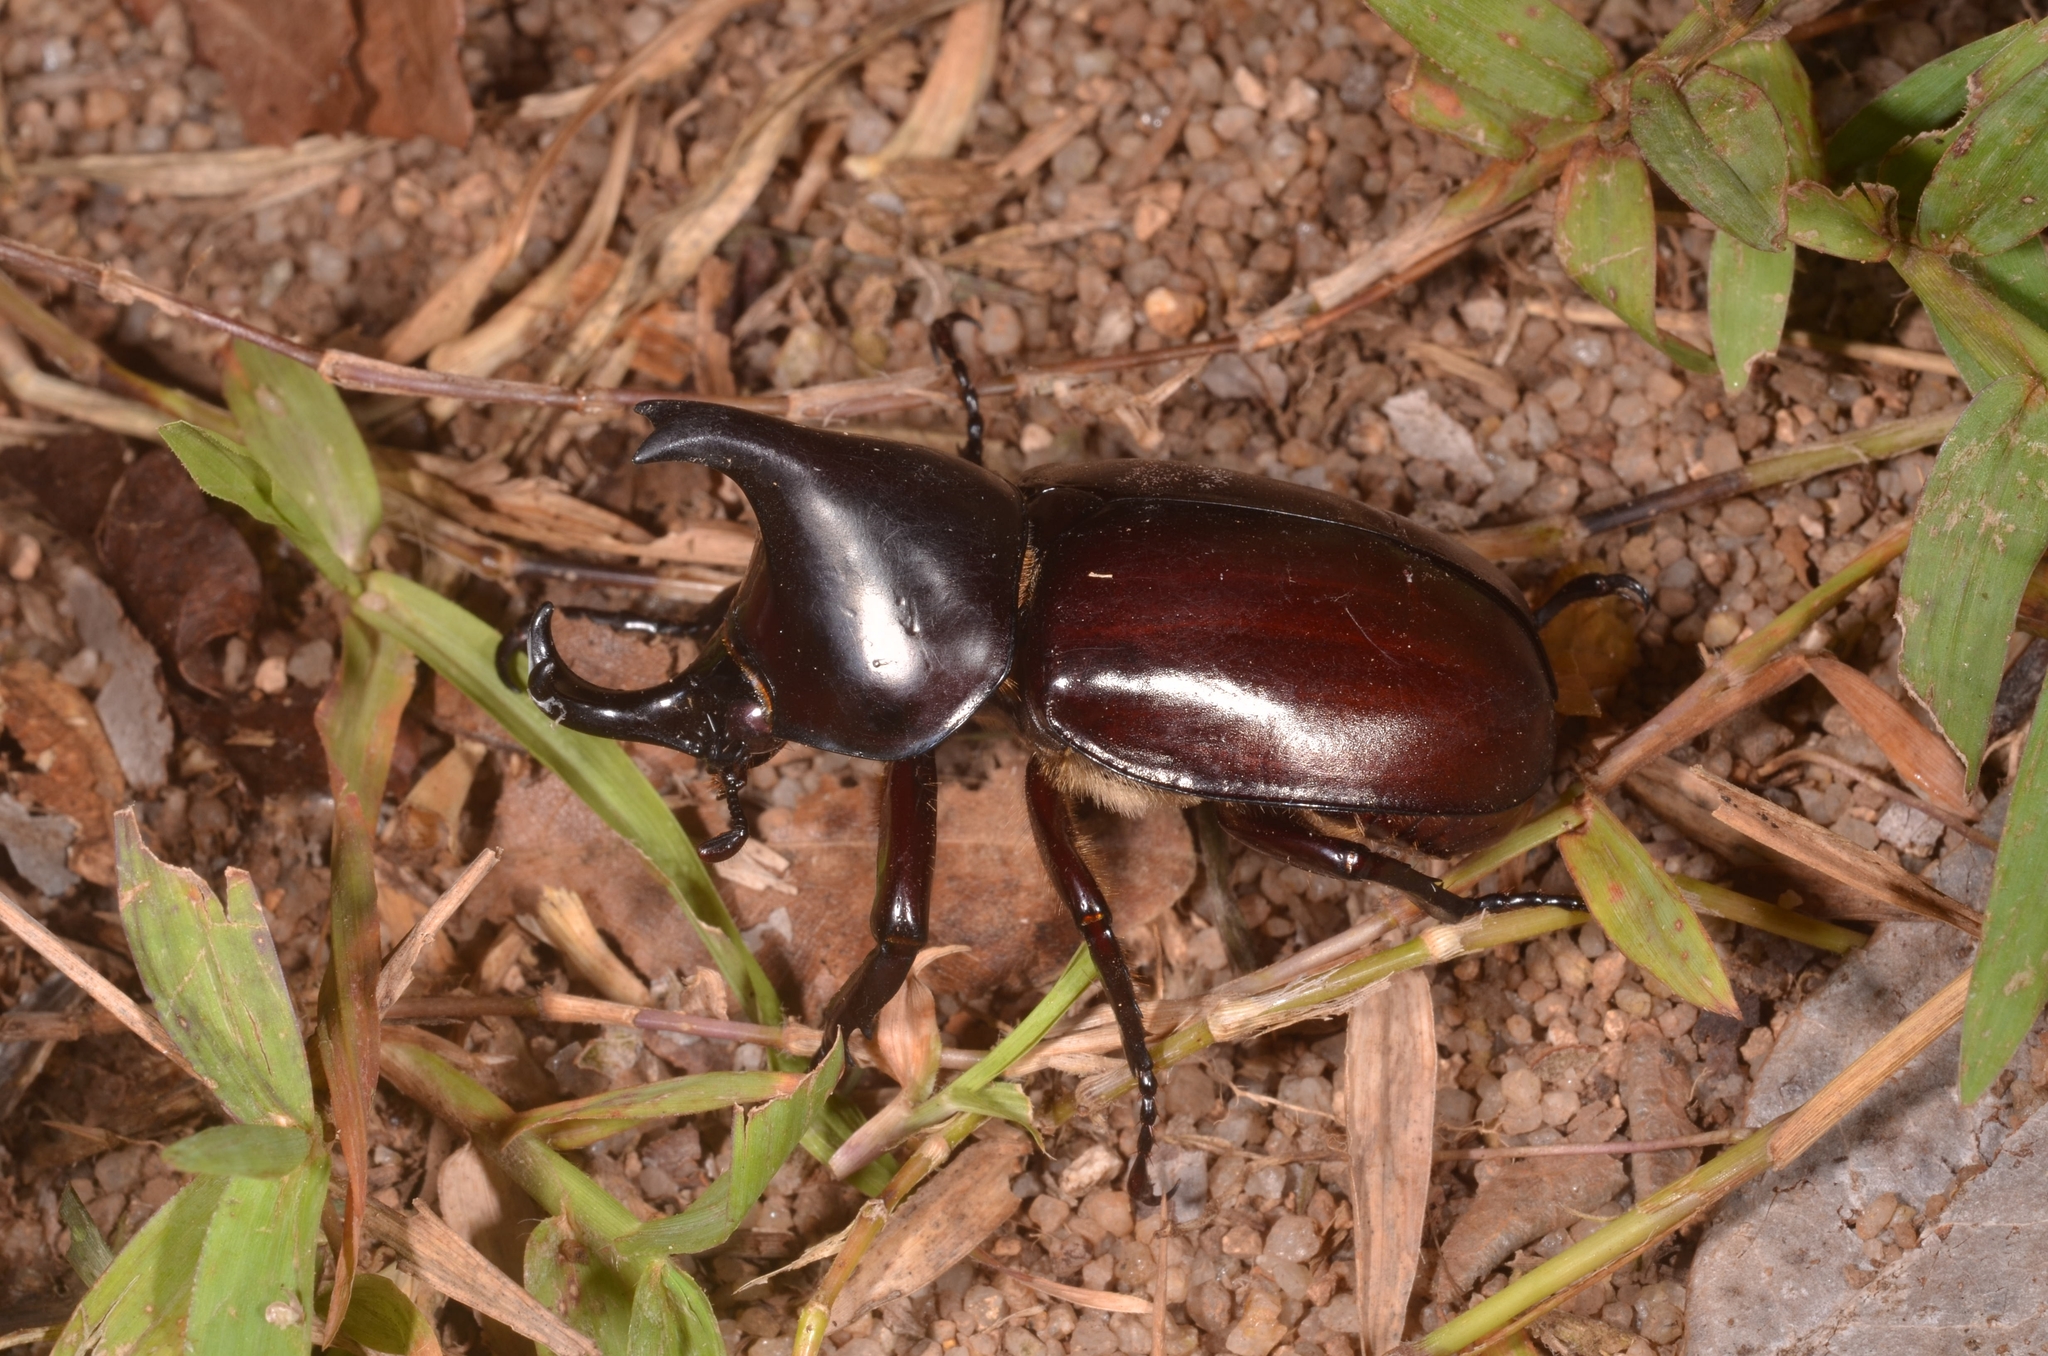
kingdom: Animalia
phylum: Arthropoda
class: Insecta
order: Coleoptera
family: Scarabaeidae
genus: Xylotrupes
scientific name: Xylotrupes socrates
